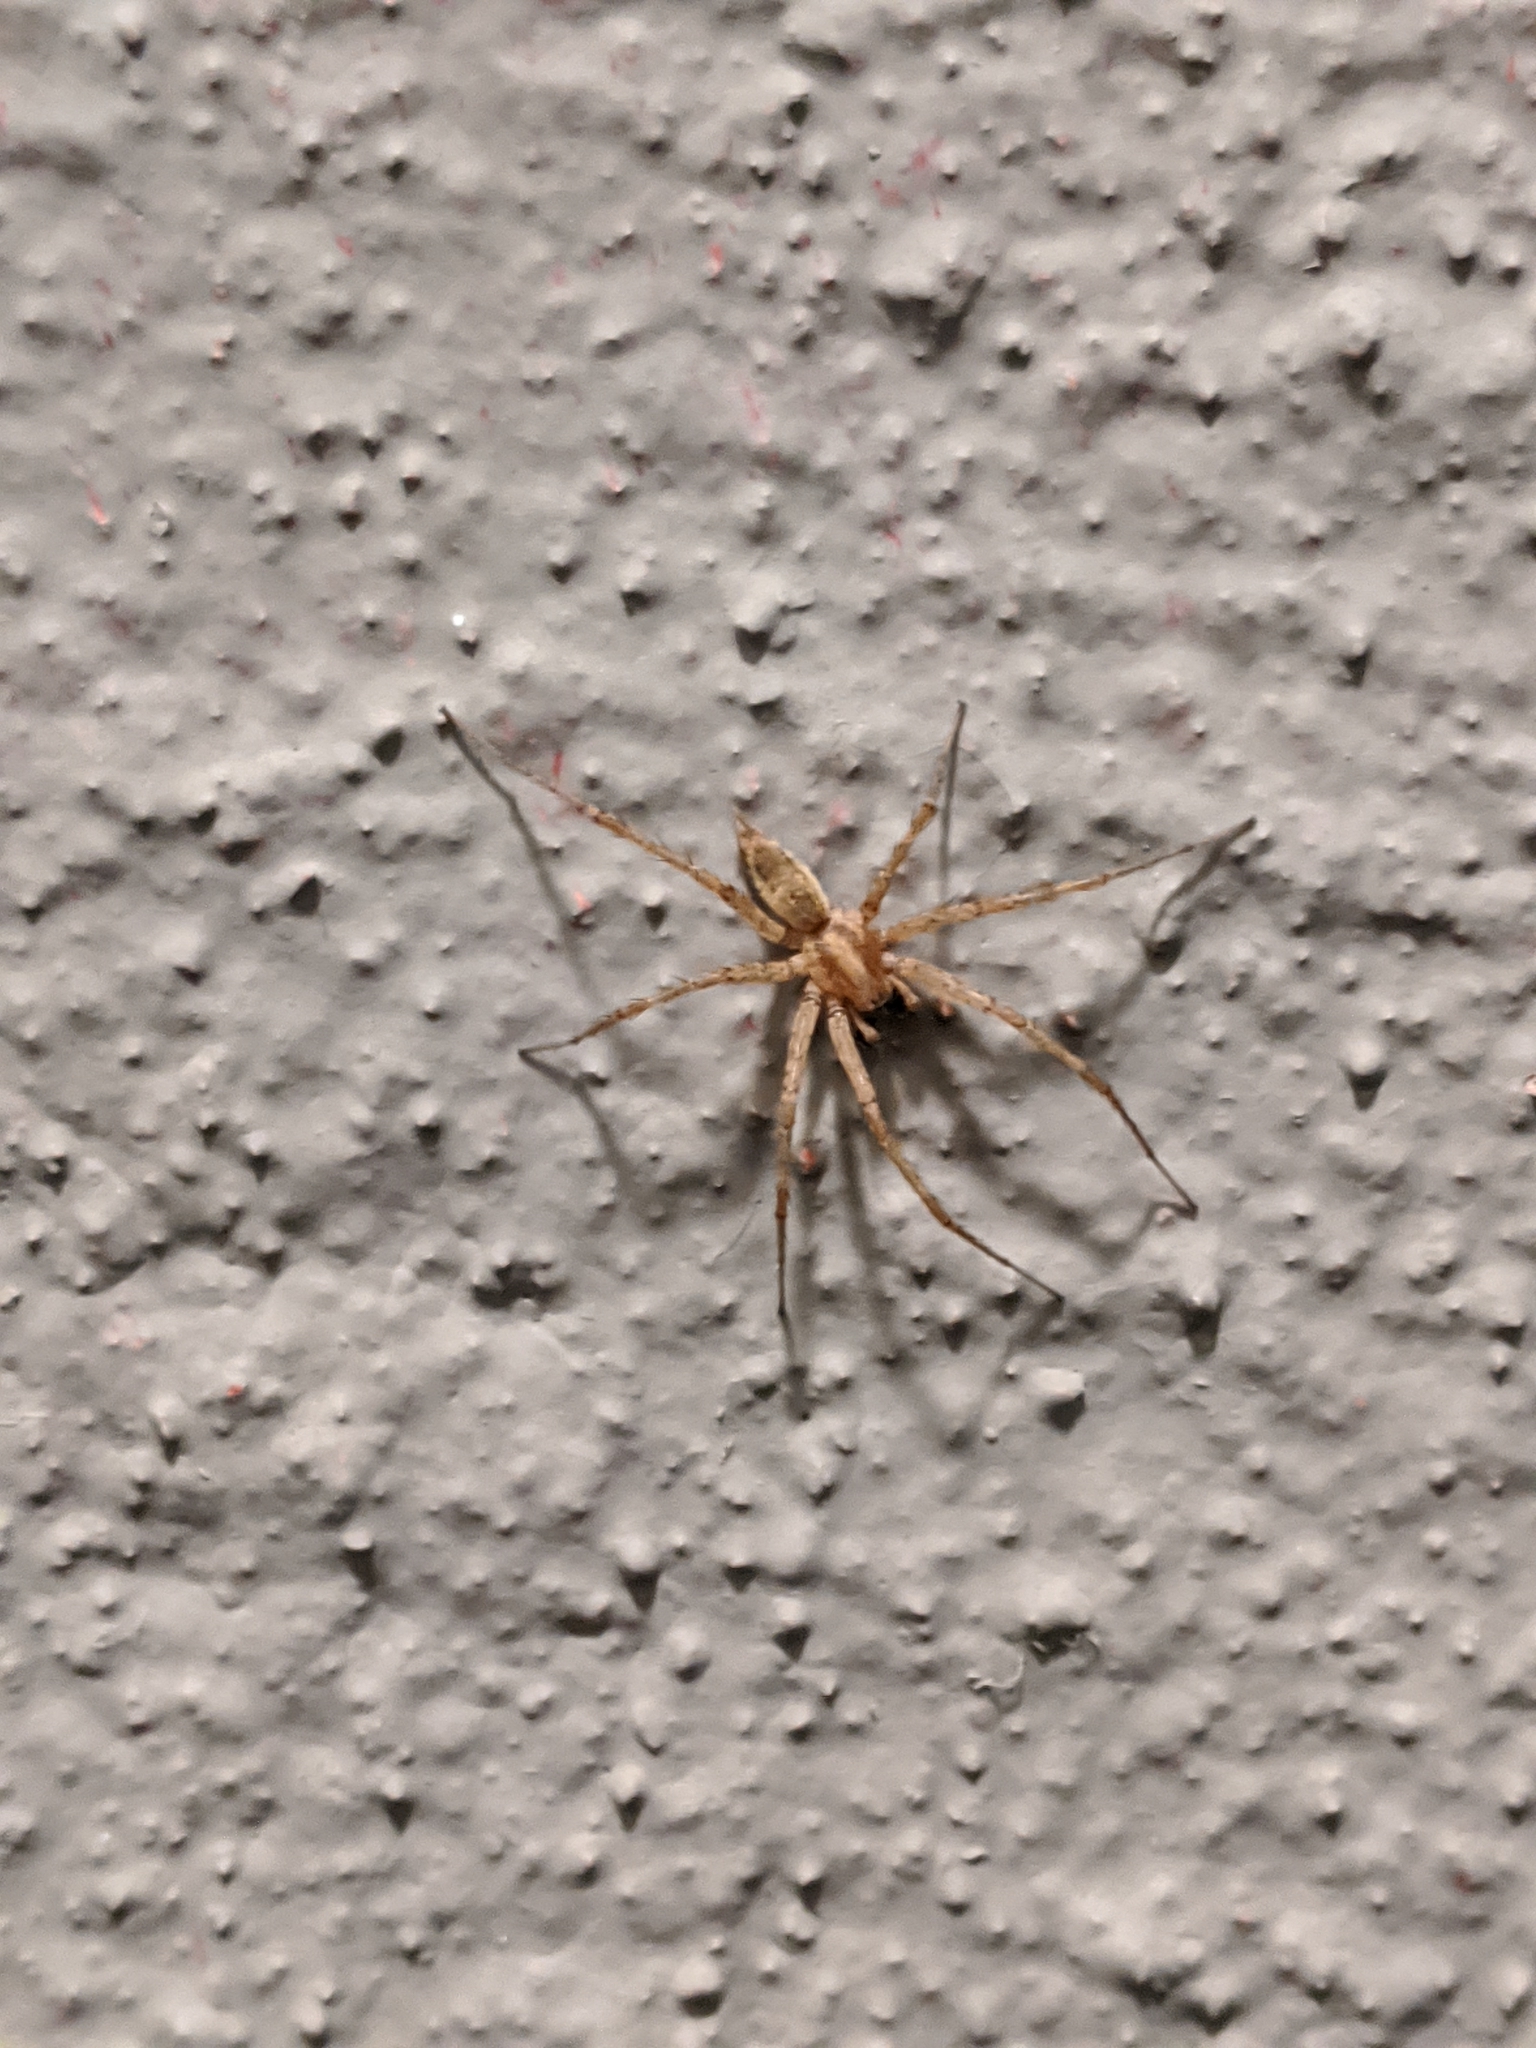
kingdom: Animalia
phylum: Arthropoda
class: Arachnida
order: Araneae
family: Agelenidae
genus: Agelenopsis
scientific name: Agelenopsis
